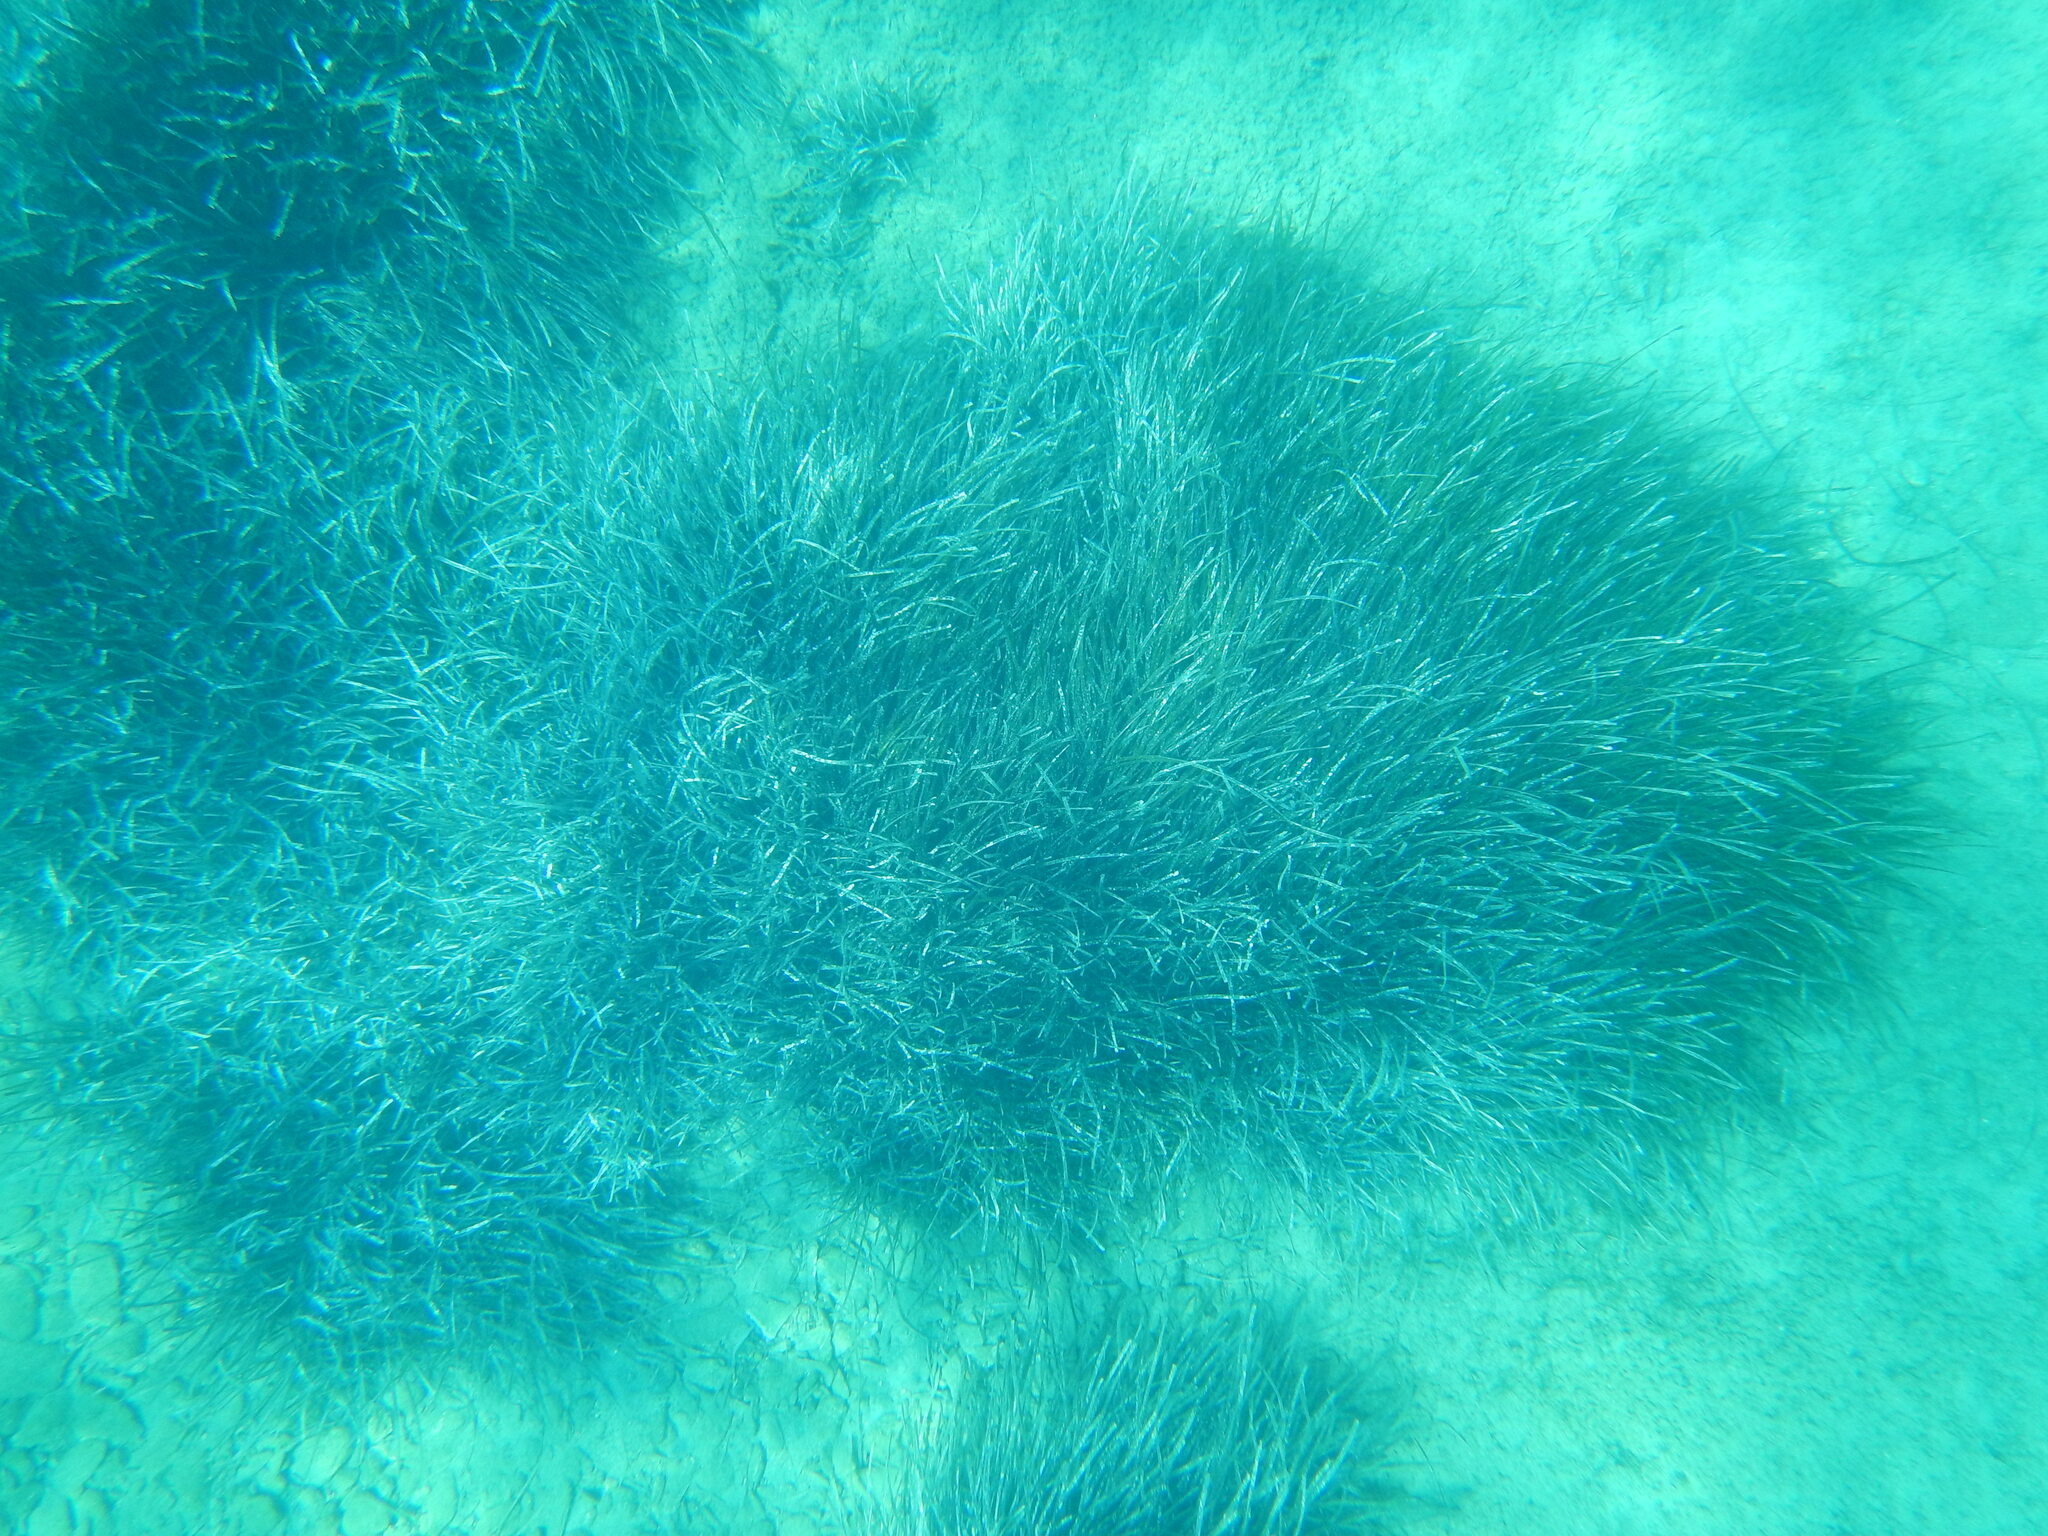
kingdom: Plantae
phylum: Tracheophyta
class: Liliopsida
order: Alismatales
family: Posidoniaceae
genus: Posidonia
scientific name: Posidonia oceanica
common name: Mediterranean tapeweed
